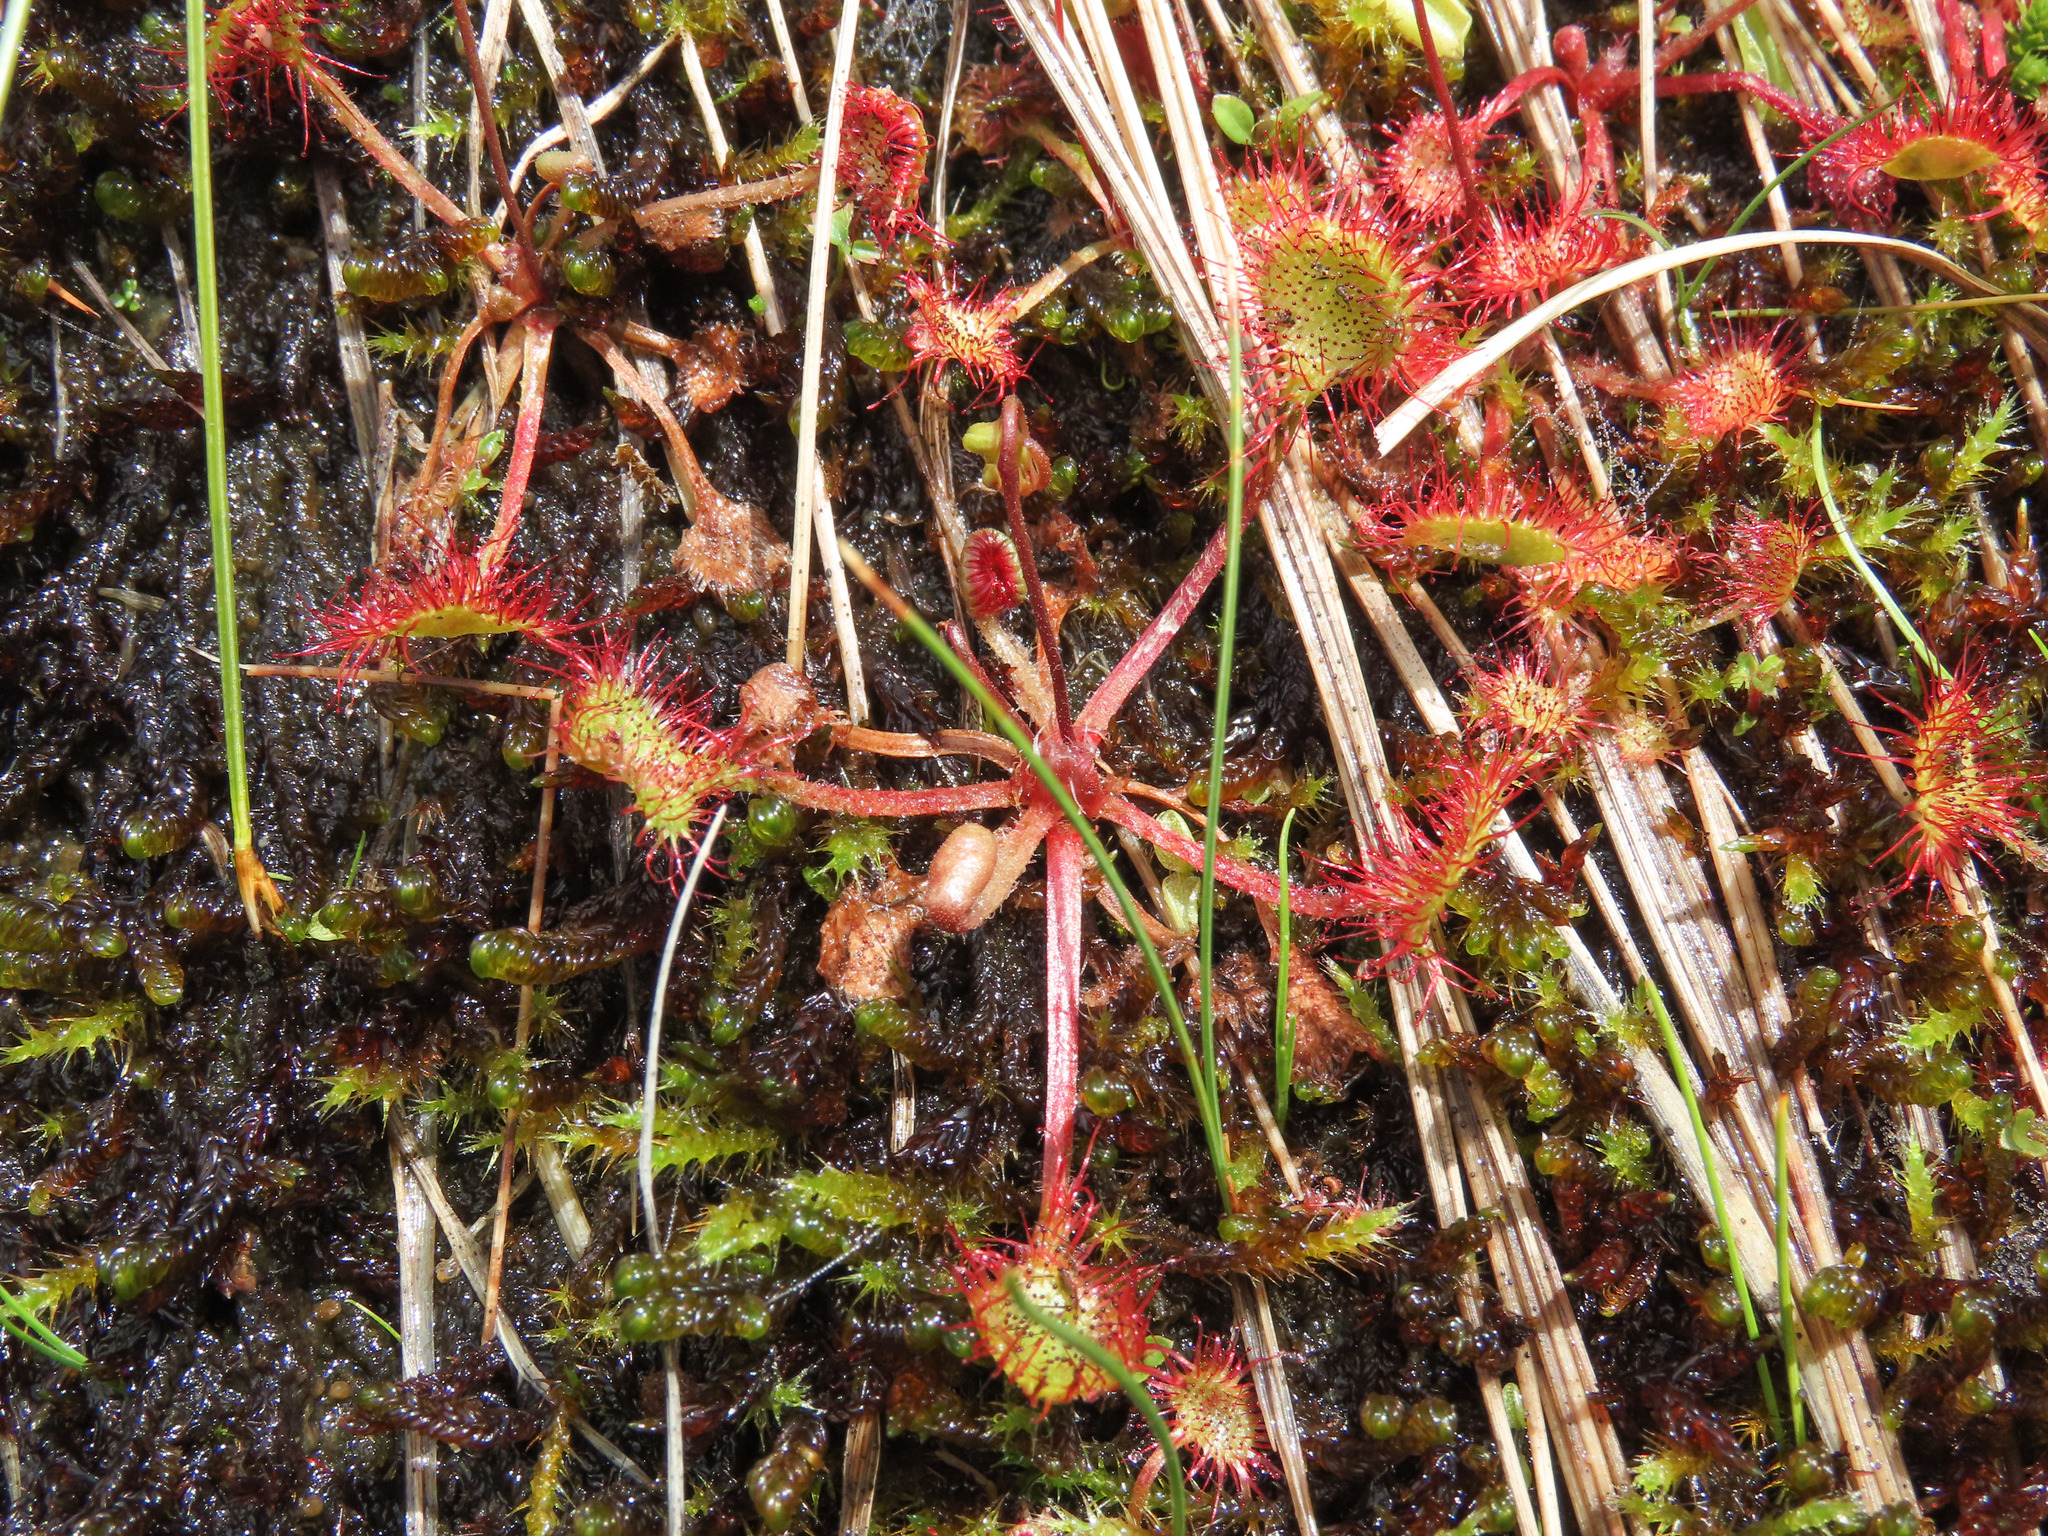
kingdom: Plantae
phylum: Tracheophyta
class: Magnoliopsida
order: Caryophyllales
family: Droseraceae
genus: Drosera
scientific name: Drosera rotundifolia
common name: Round-leaved sundew
